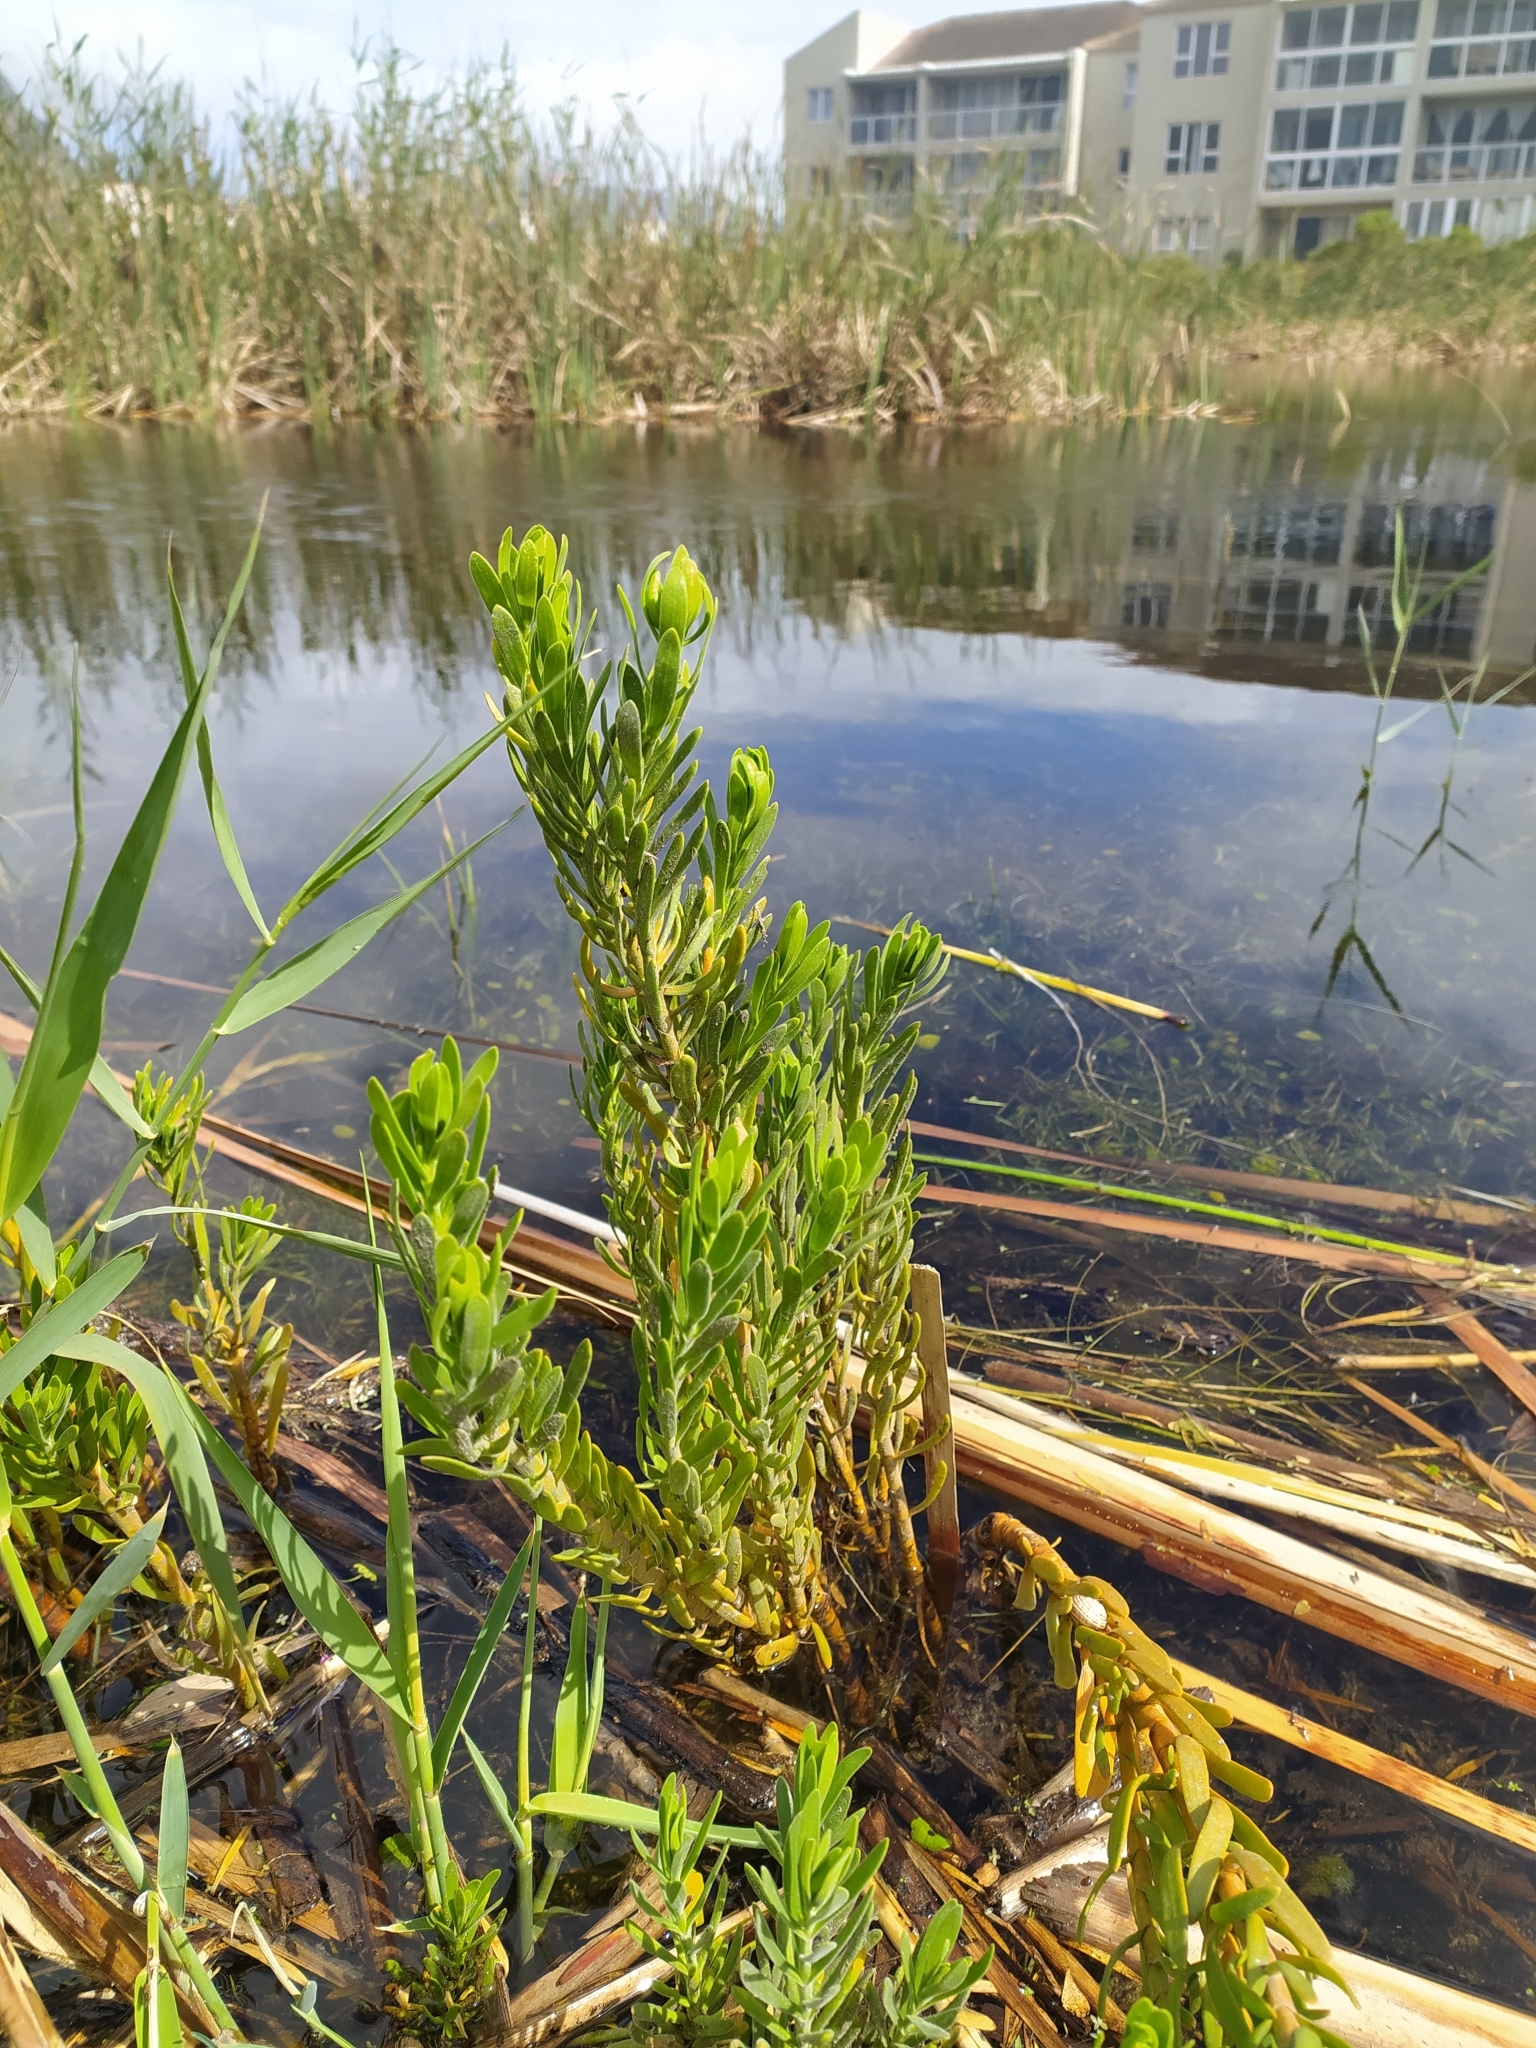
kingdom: Plantae
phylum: Tracheophyta
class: Magnoliopsida
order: Gentianales
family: Gentianaceae
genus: Orphium
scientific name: Orphium frutescens
